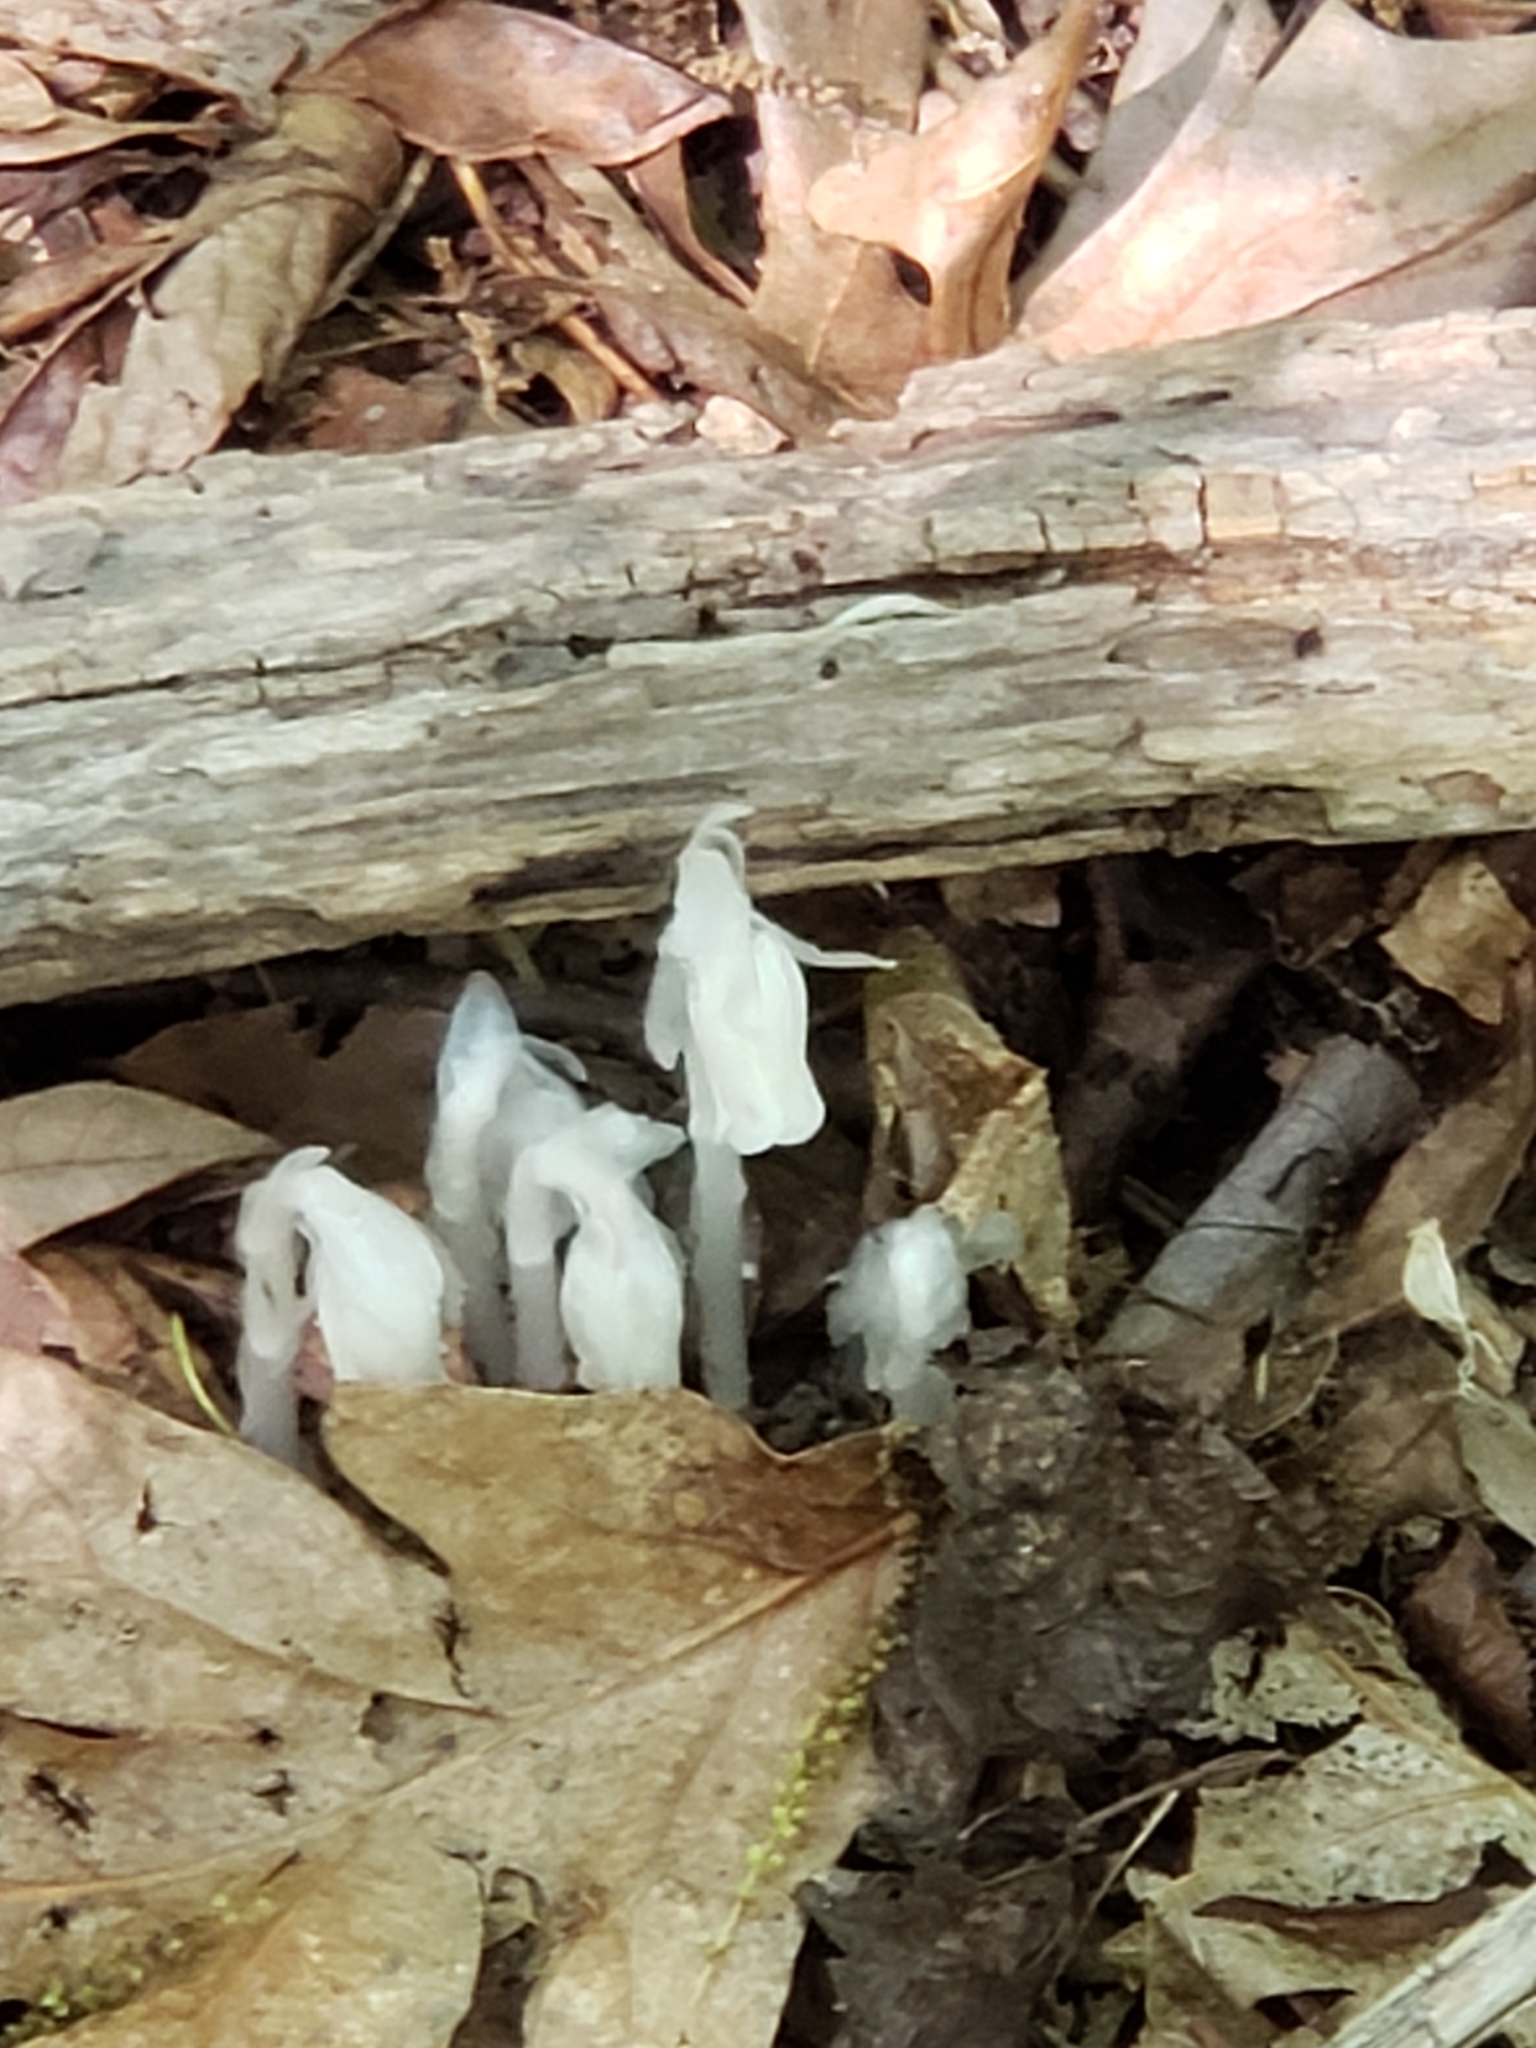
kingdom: Plantae
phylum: Tracheophyta
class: Magnoliopsida
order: Ericales
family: Ericaceae
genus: Monotropa
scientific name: Monotropa uniflora
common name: Convulsion root
